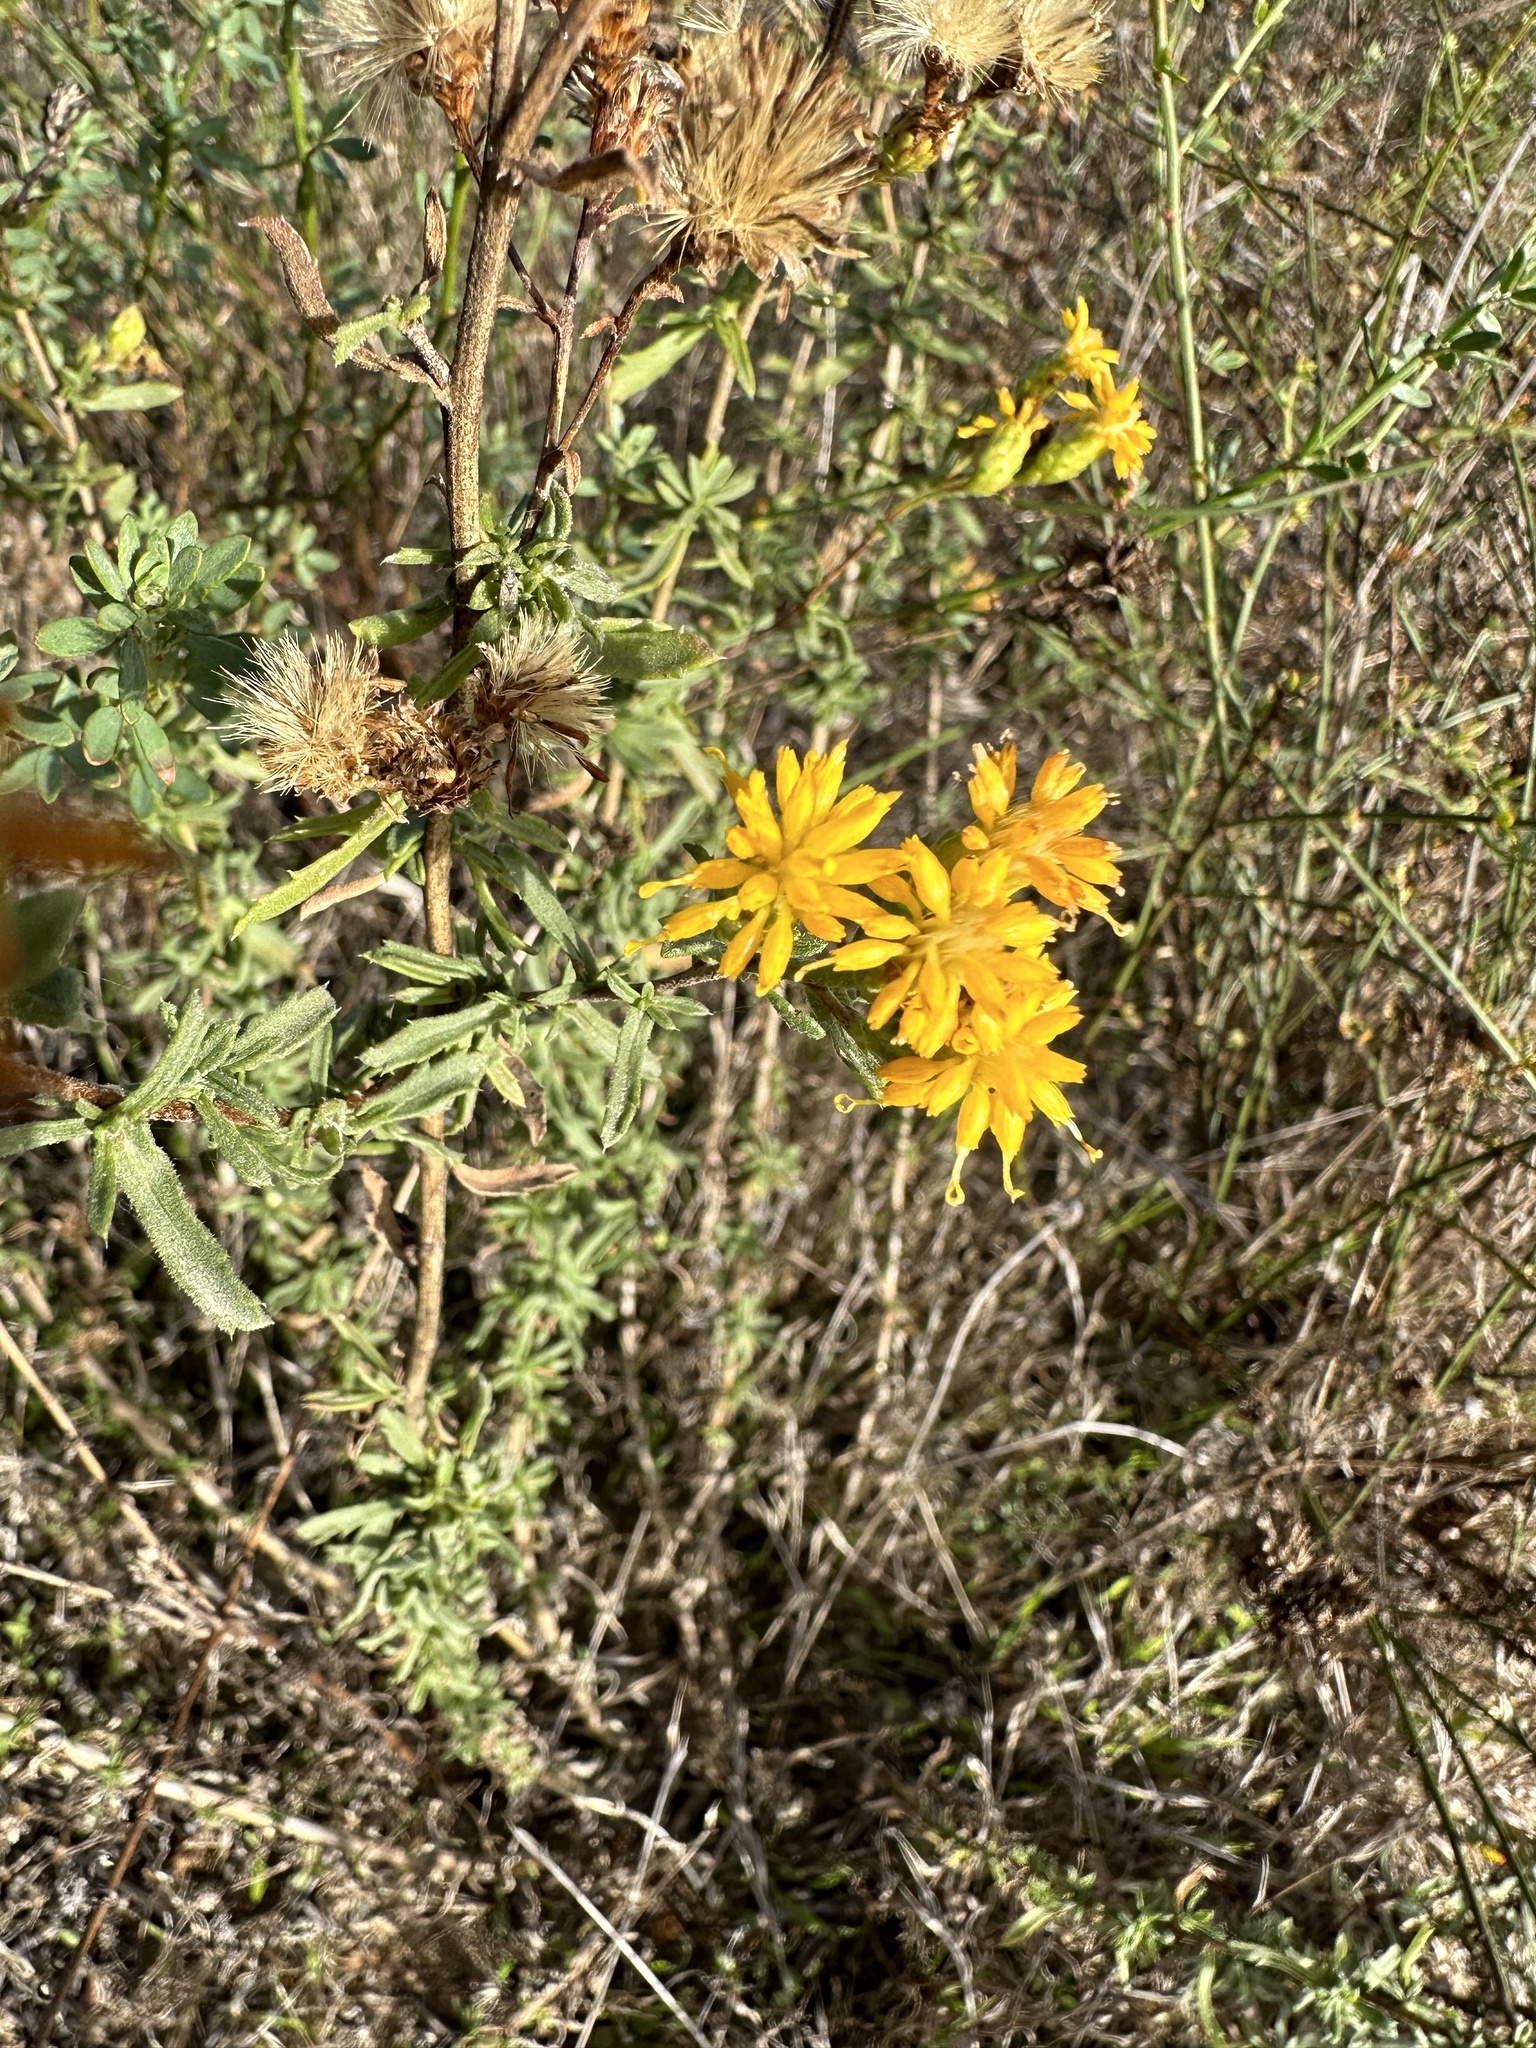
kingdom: Plantae
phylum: Tracheophyta
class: Magnoliopsida
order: Asterales
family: Asteraceae
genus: Isocoma
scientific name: Isocoma menziesii
